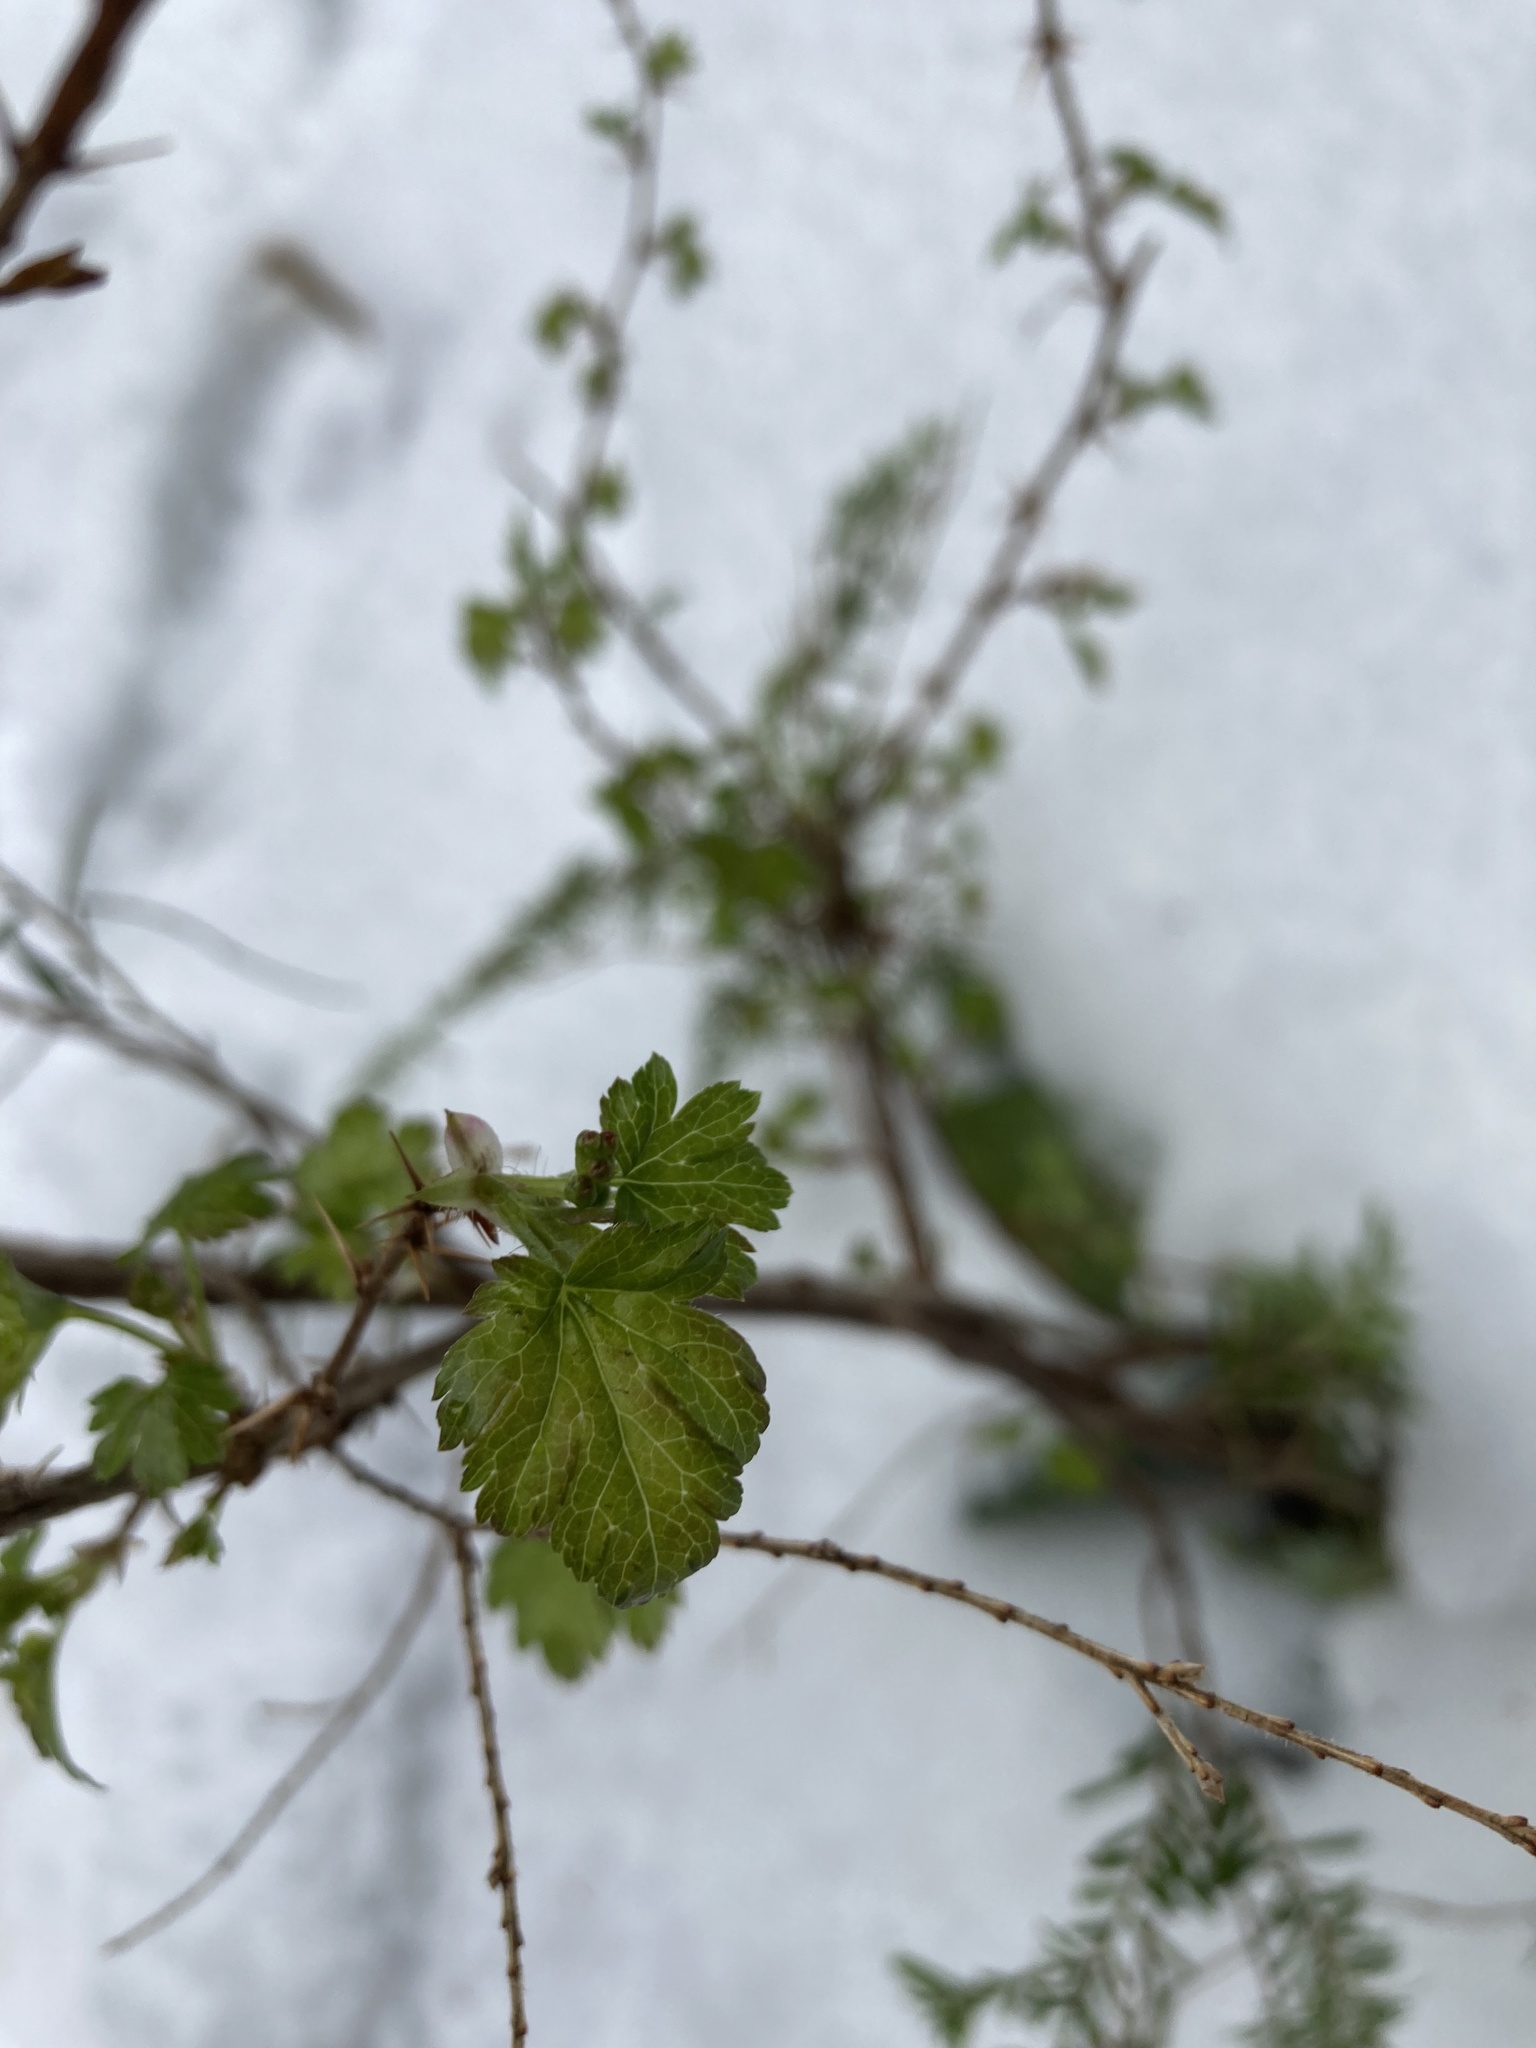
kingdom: Plantae
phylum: Tracheophyta
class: Magnoliopsida
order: Saxifragales
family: Grossulariaceae
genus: Ribes
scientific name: Ribes lacustre
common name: Black gooseberry
